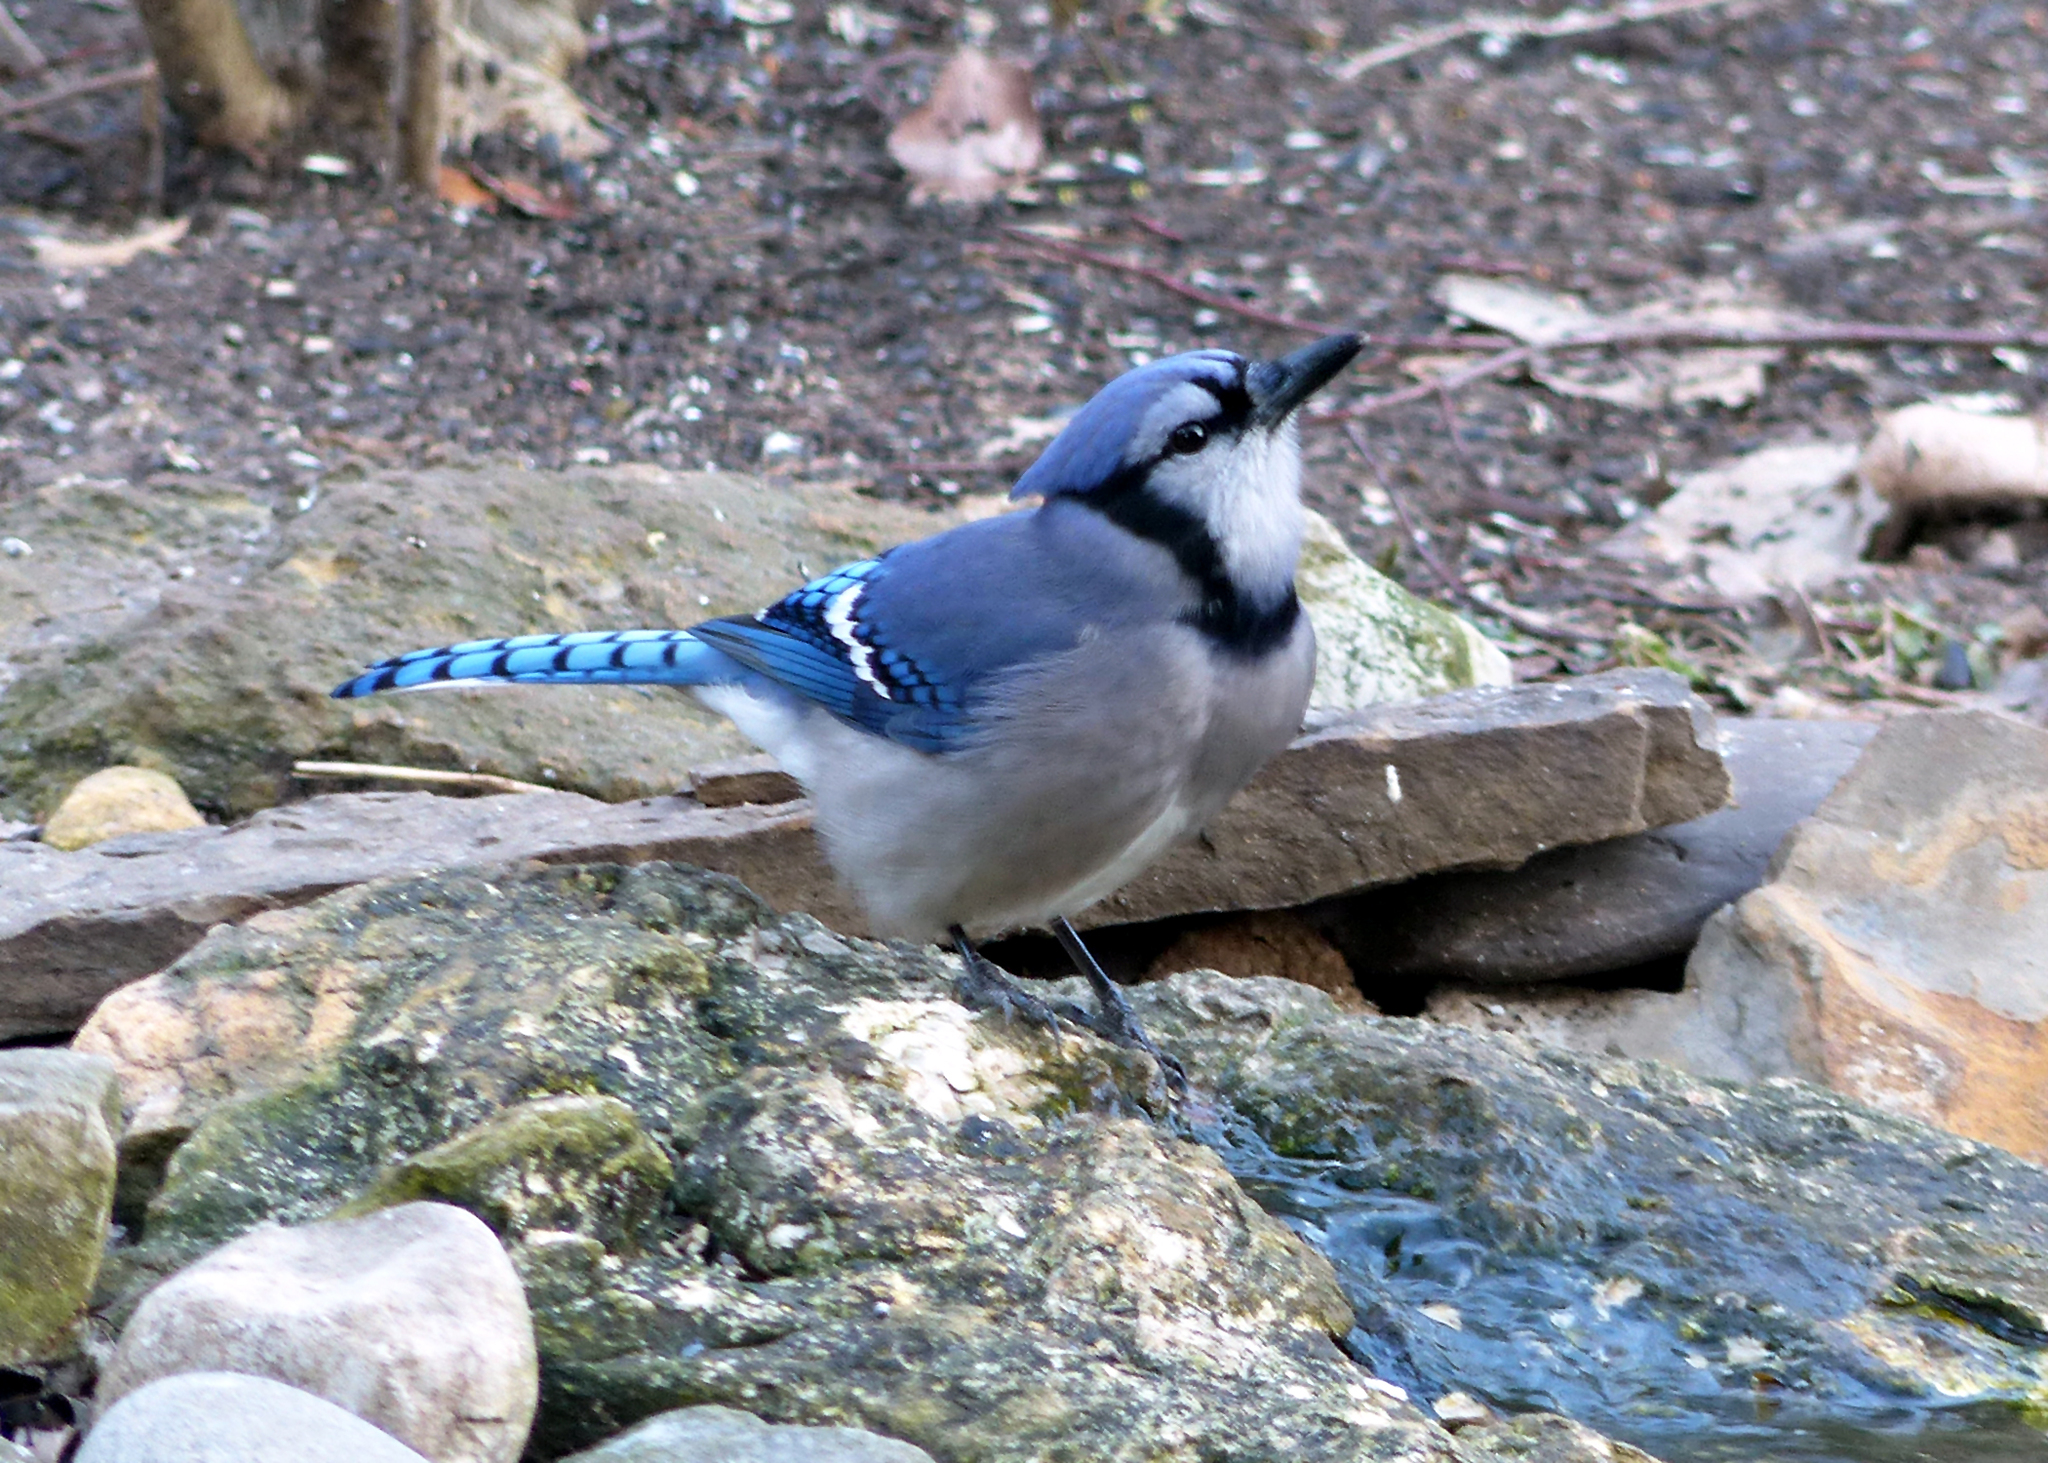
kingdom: Animalia
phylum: Chordata
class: Aves
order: Passeriformes
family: Corvidae
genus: Cyanocitta
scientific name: Cyanocitta cristata
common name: Blue jay
